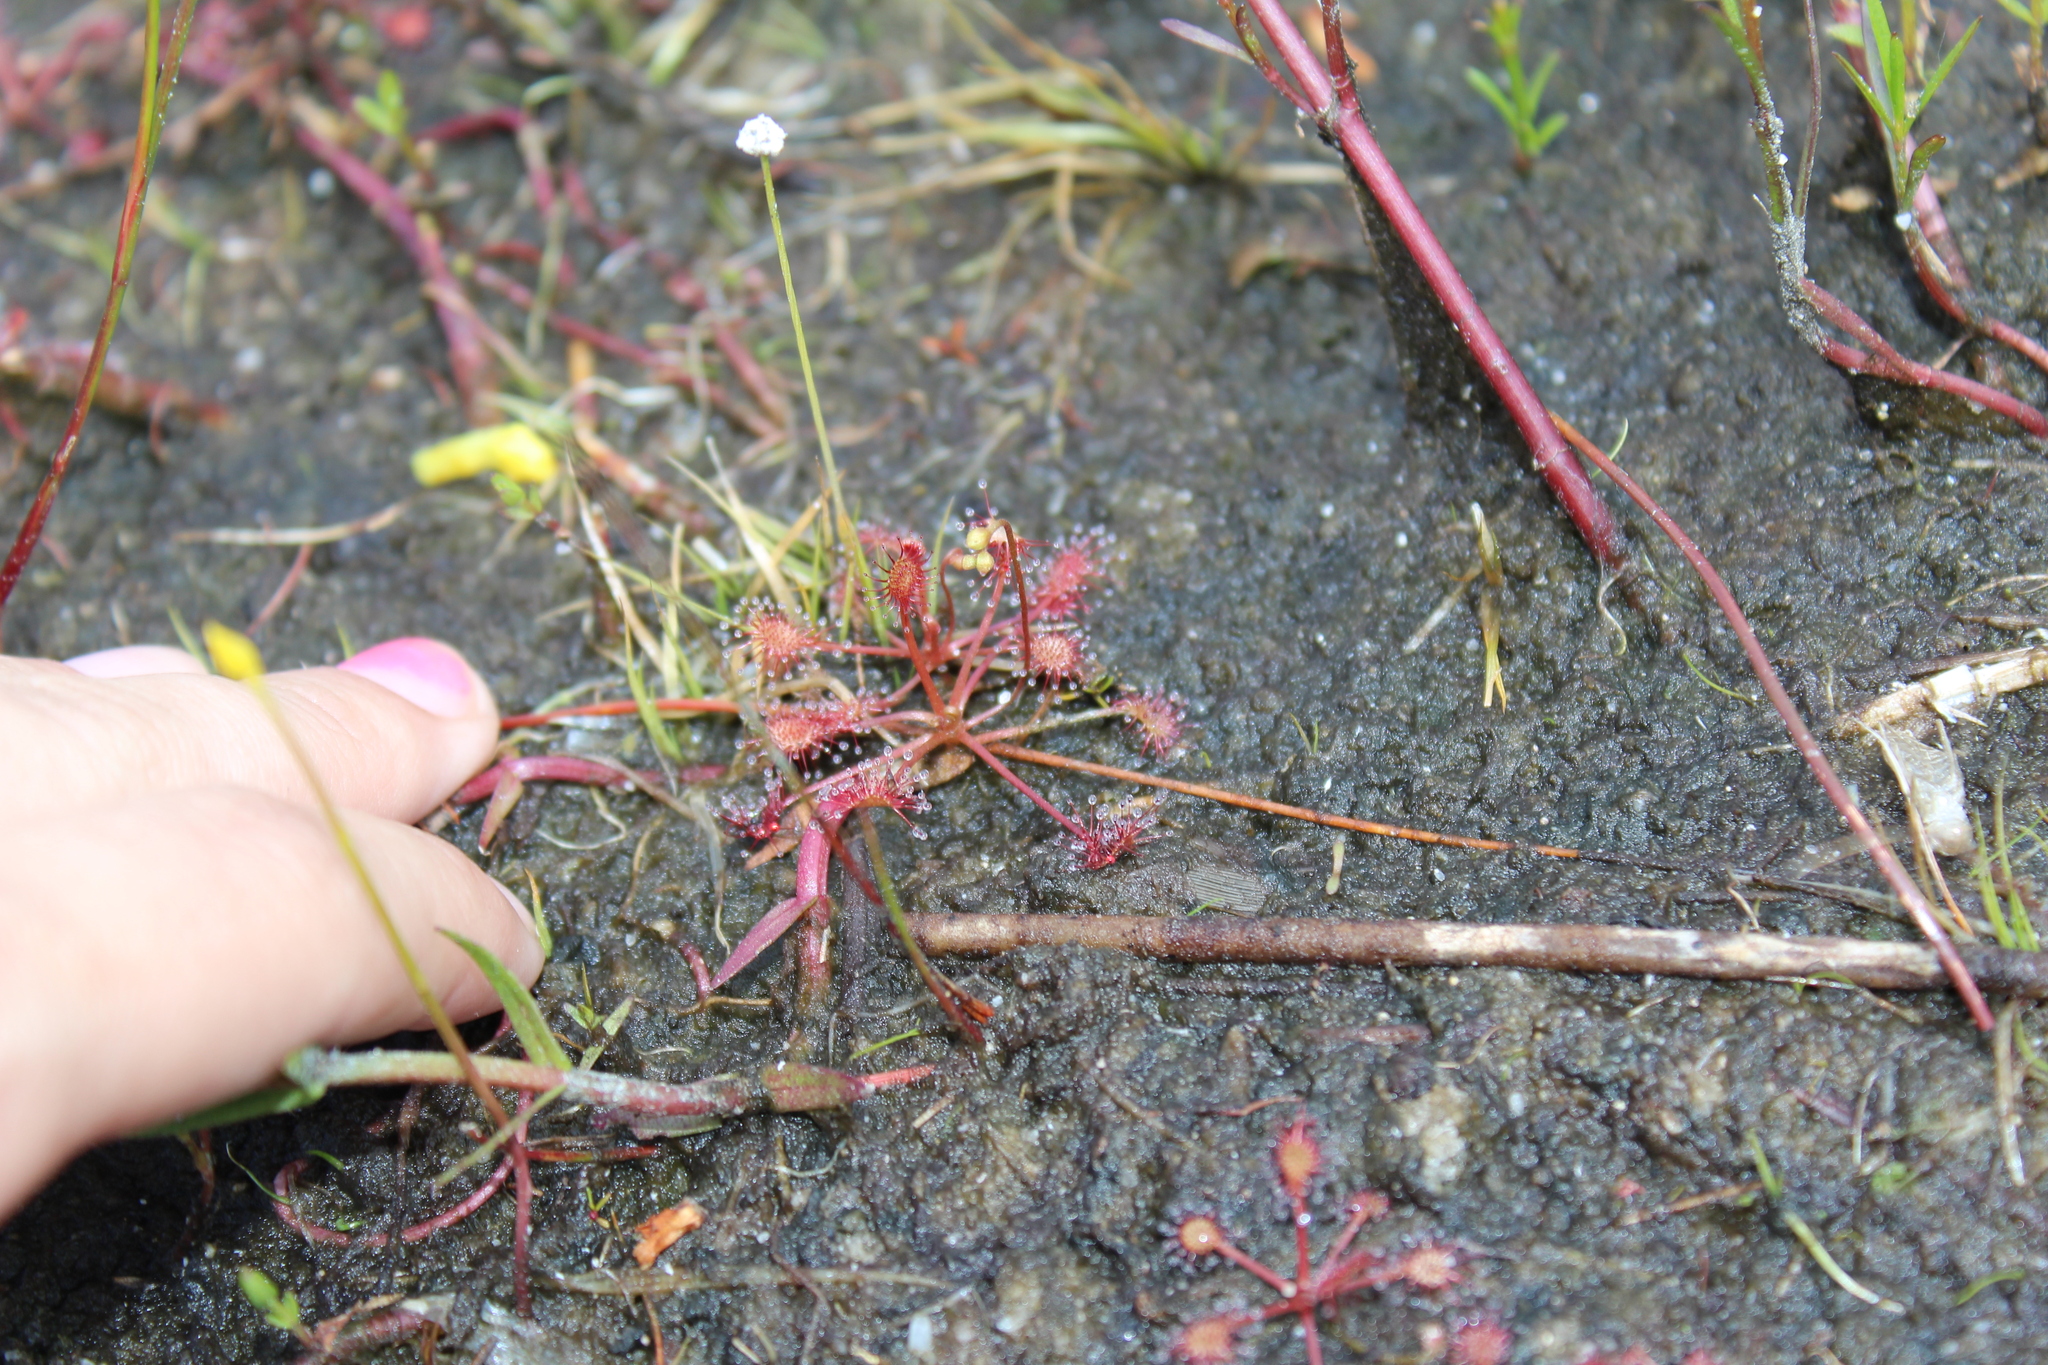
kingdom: Plantae
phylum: Tracheophyta
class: Magnoliopsida
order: Caryophyllales
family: Droseraceae
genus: Drosera
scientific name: Drosera intermedia
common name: Oblong-leaved sundew
